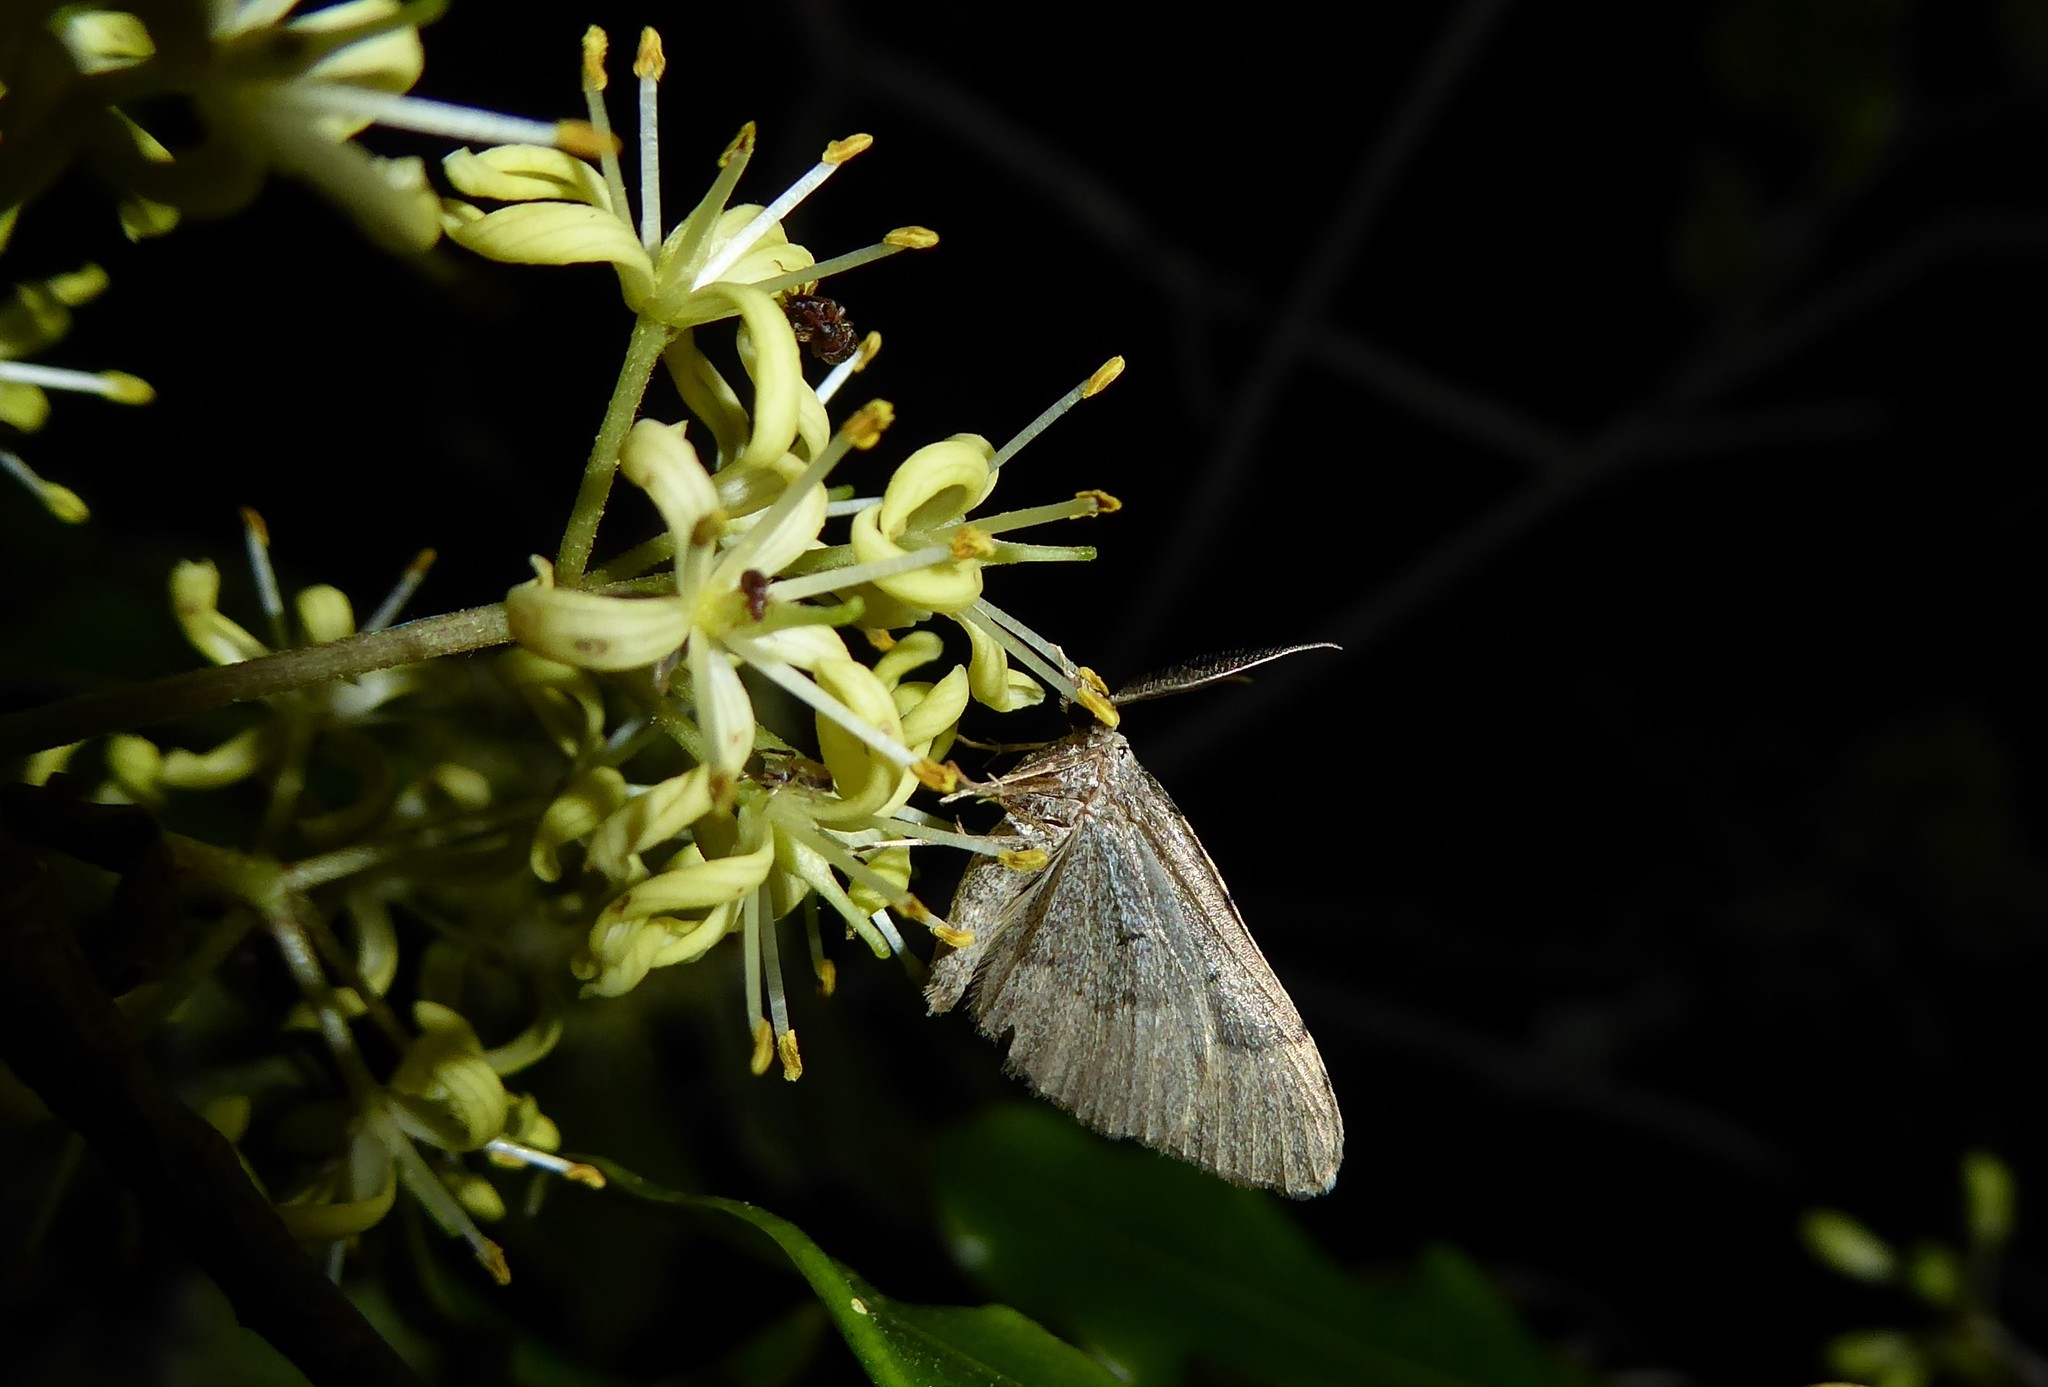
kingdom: Animalia
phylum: Arthropoda
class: Insecta
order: Lepidoptera
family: Geometridae
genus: Epyaxa
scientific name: Epyaxa rosearia
